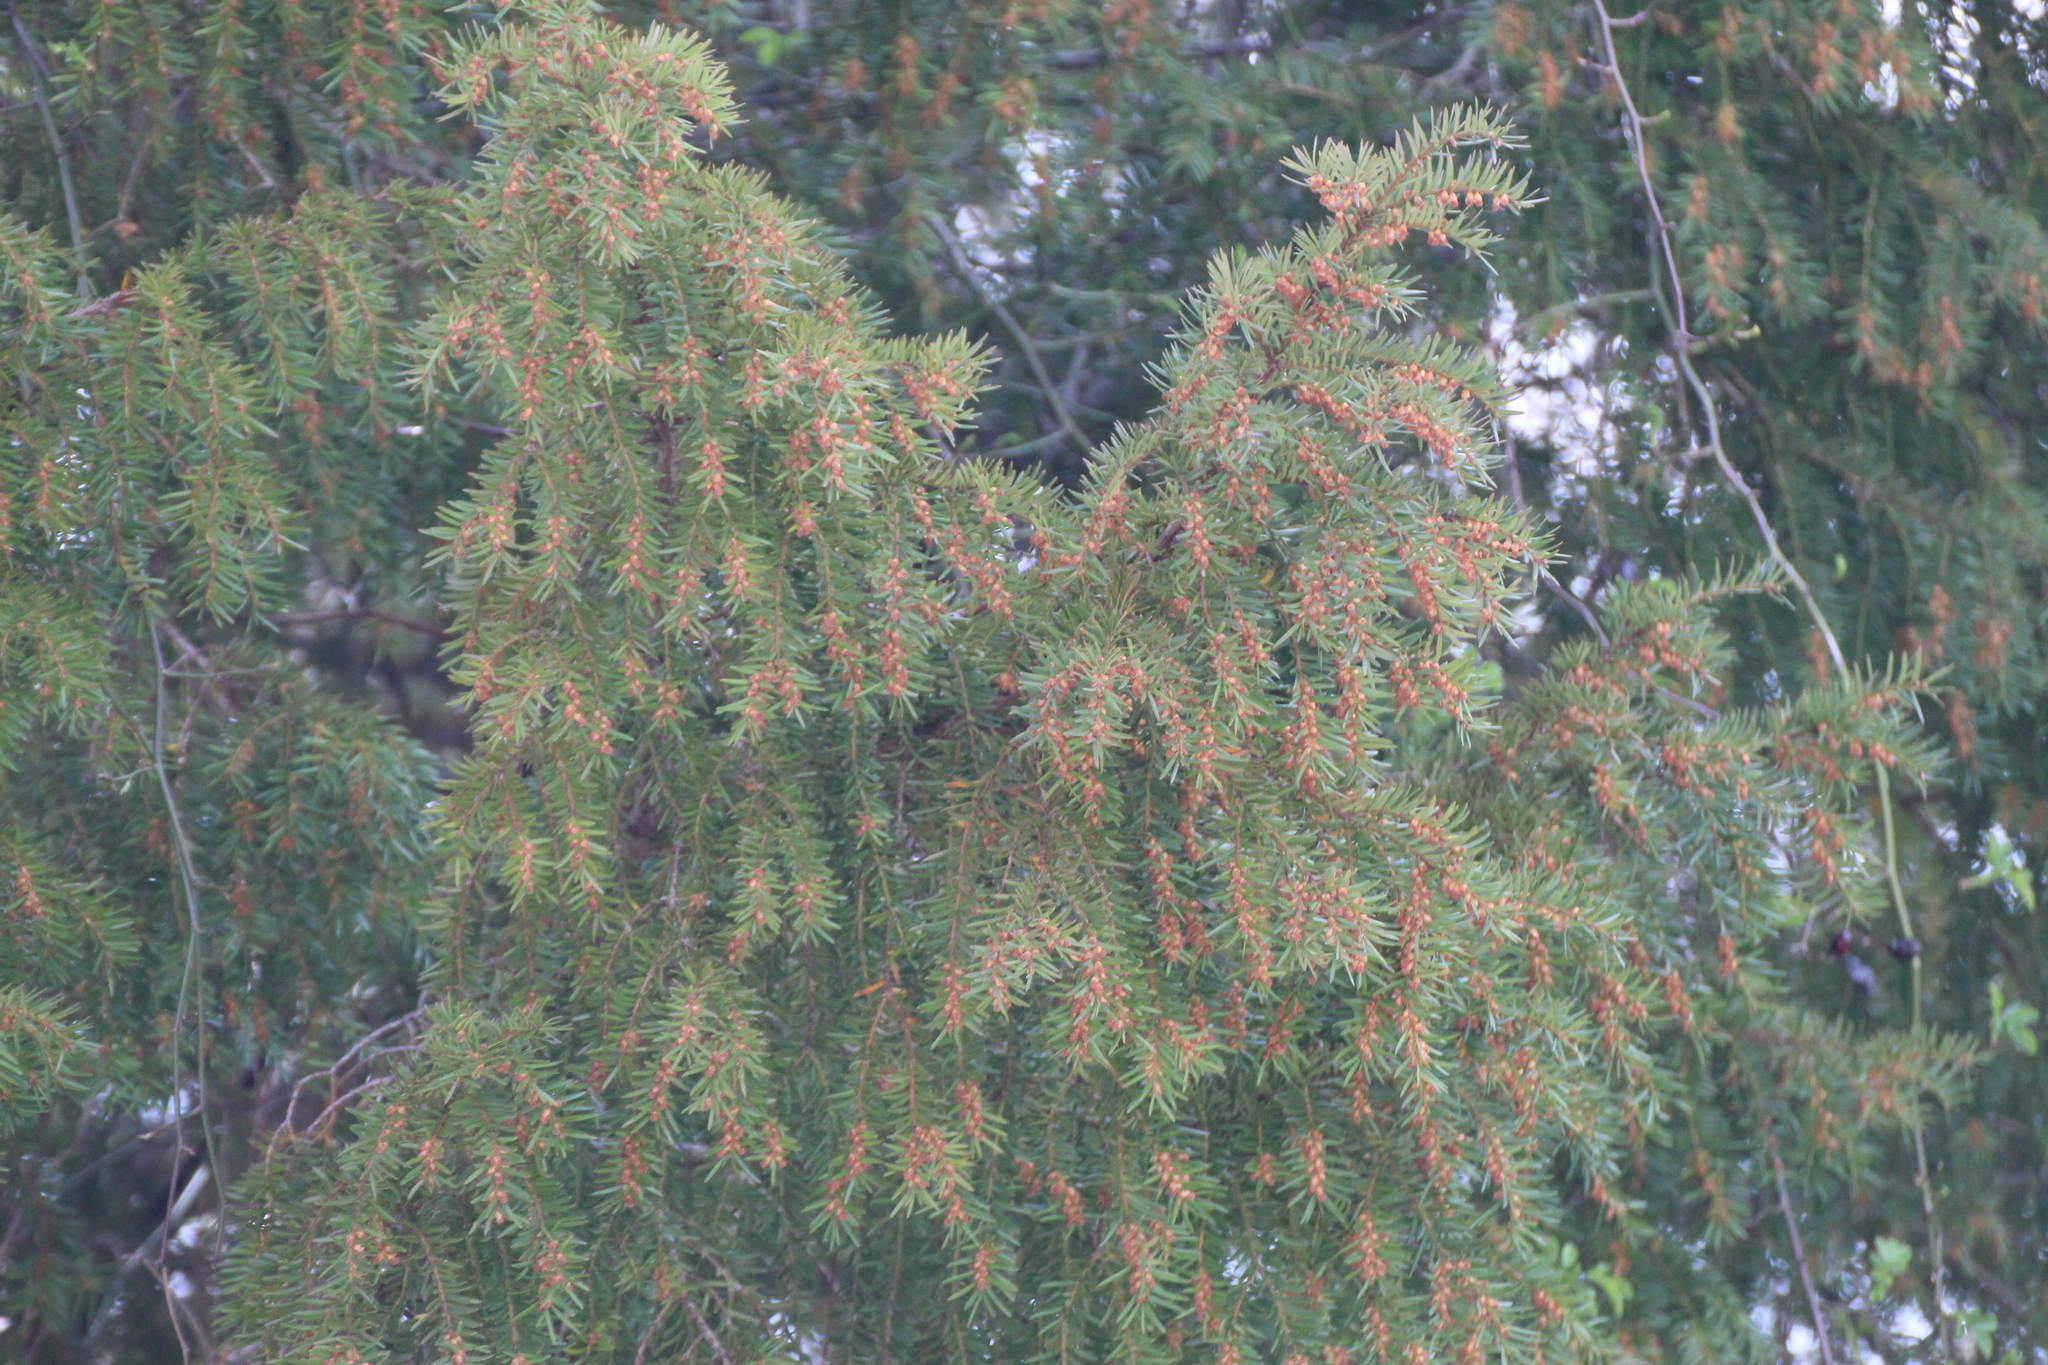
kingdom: Plantae
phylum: Tracheophyta
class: Pinopsida
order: Pinales
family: Taxaceae
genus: Taxus
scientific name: Taxus baccata
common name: Yew
